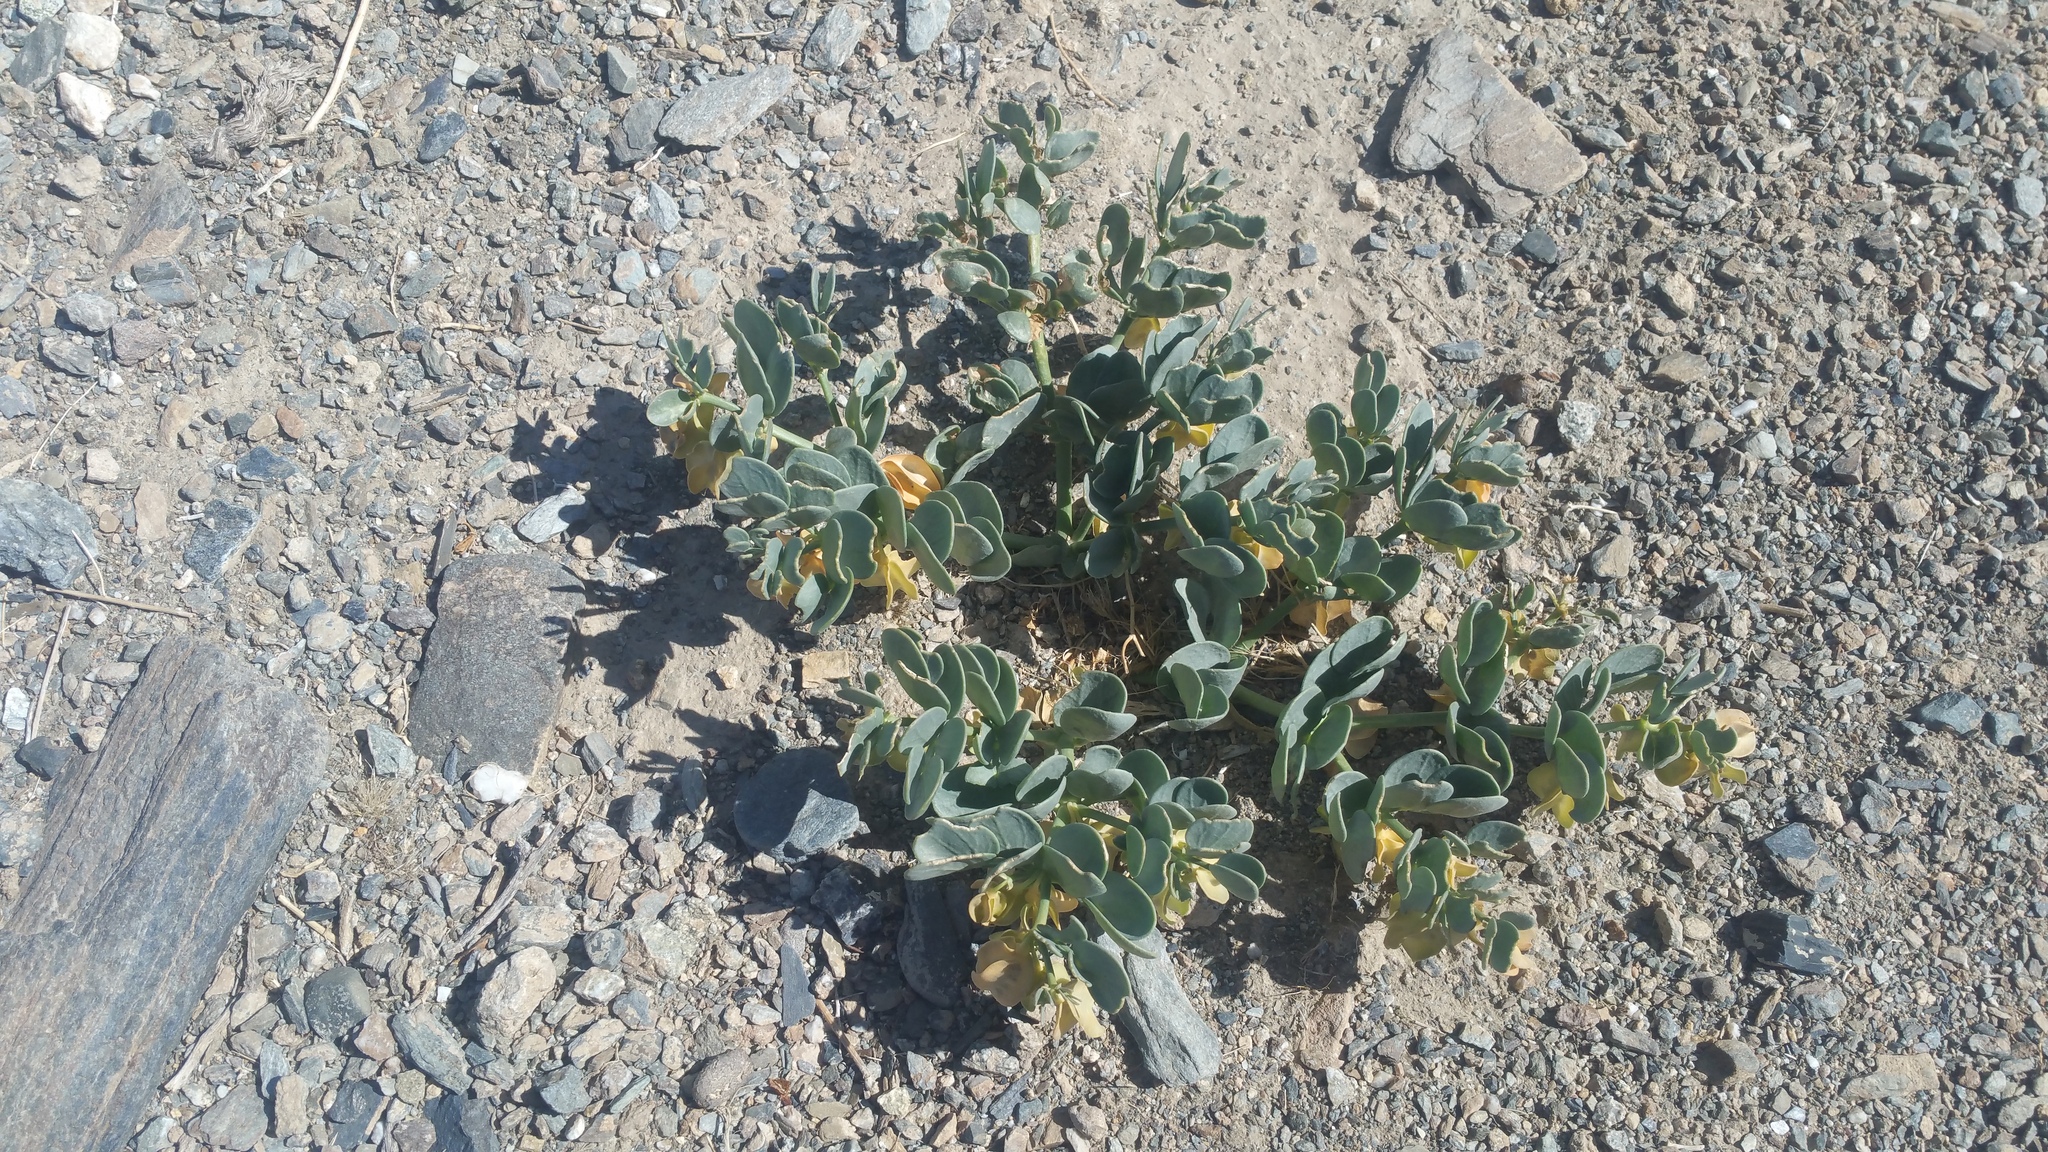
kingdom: Plantae
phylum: Tracheophyta
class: Magnoliopsida
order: Zygophyllales
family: Zygophyllaceae
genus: Zygophyllum
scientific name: Zygophyllum potaninii
